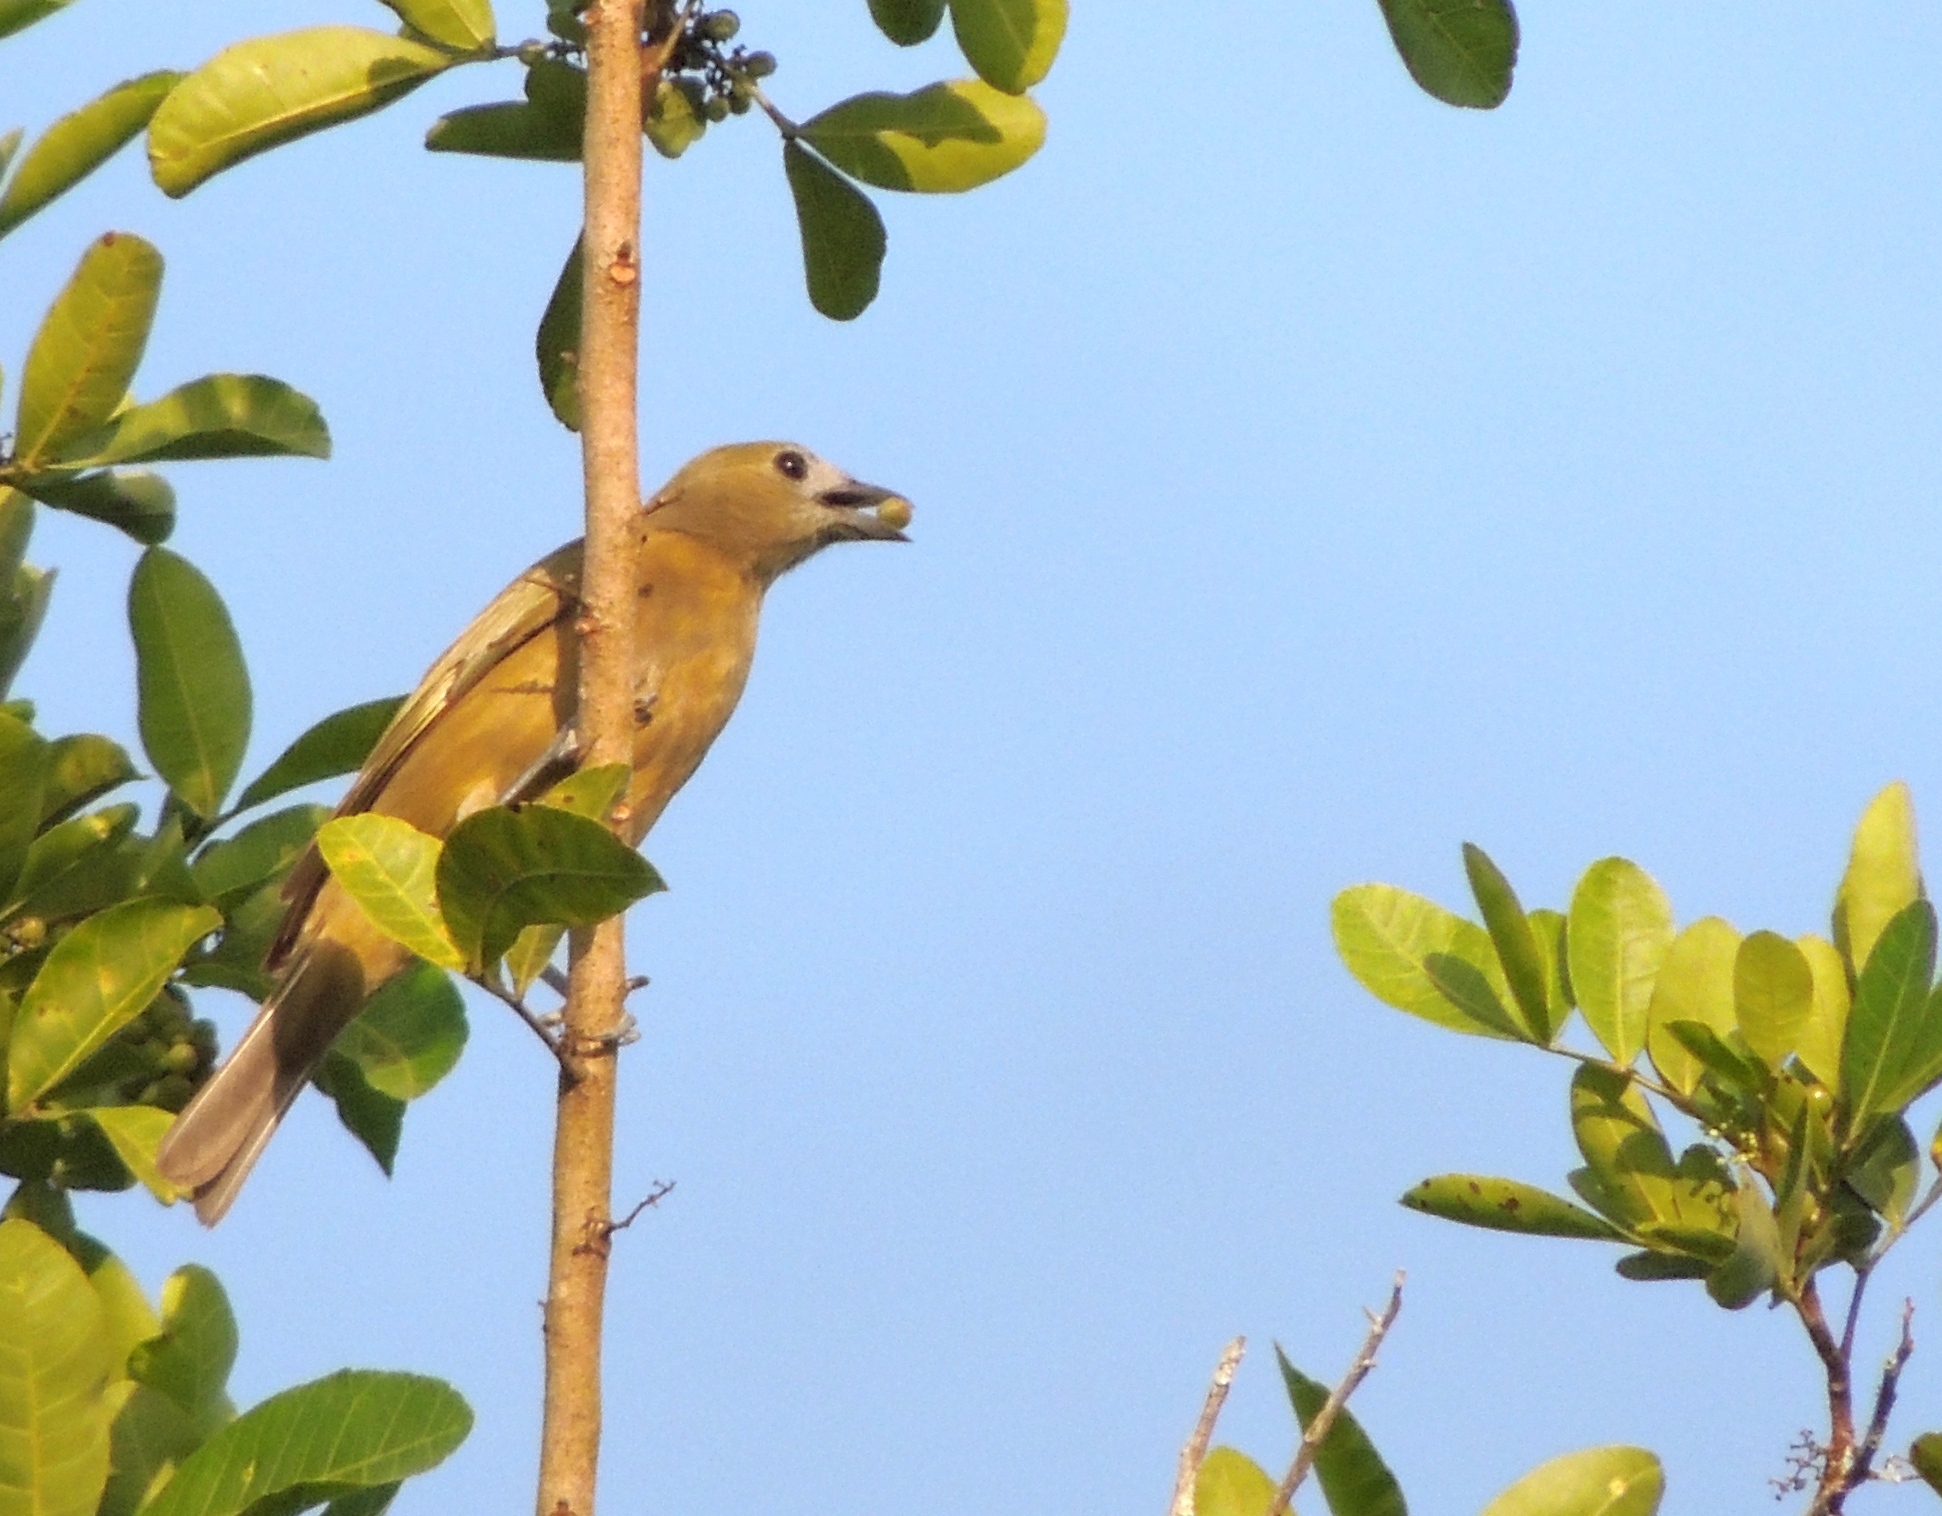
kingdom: Animalia
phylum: Chordata
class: Aves
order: Passeriformes
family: Thraupidae
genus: Thraupis
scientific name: Thraupis palmarum
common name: Palm tanager
